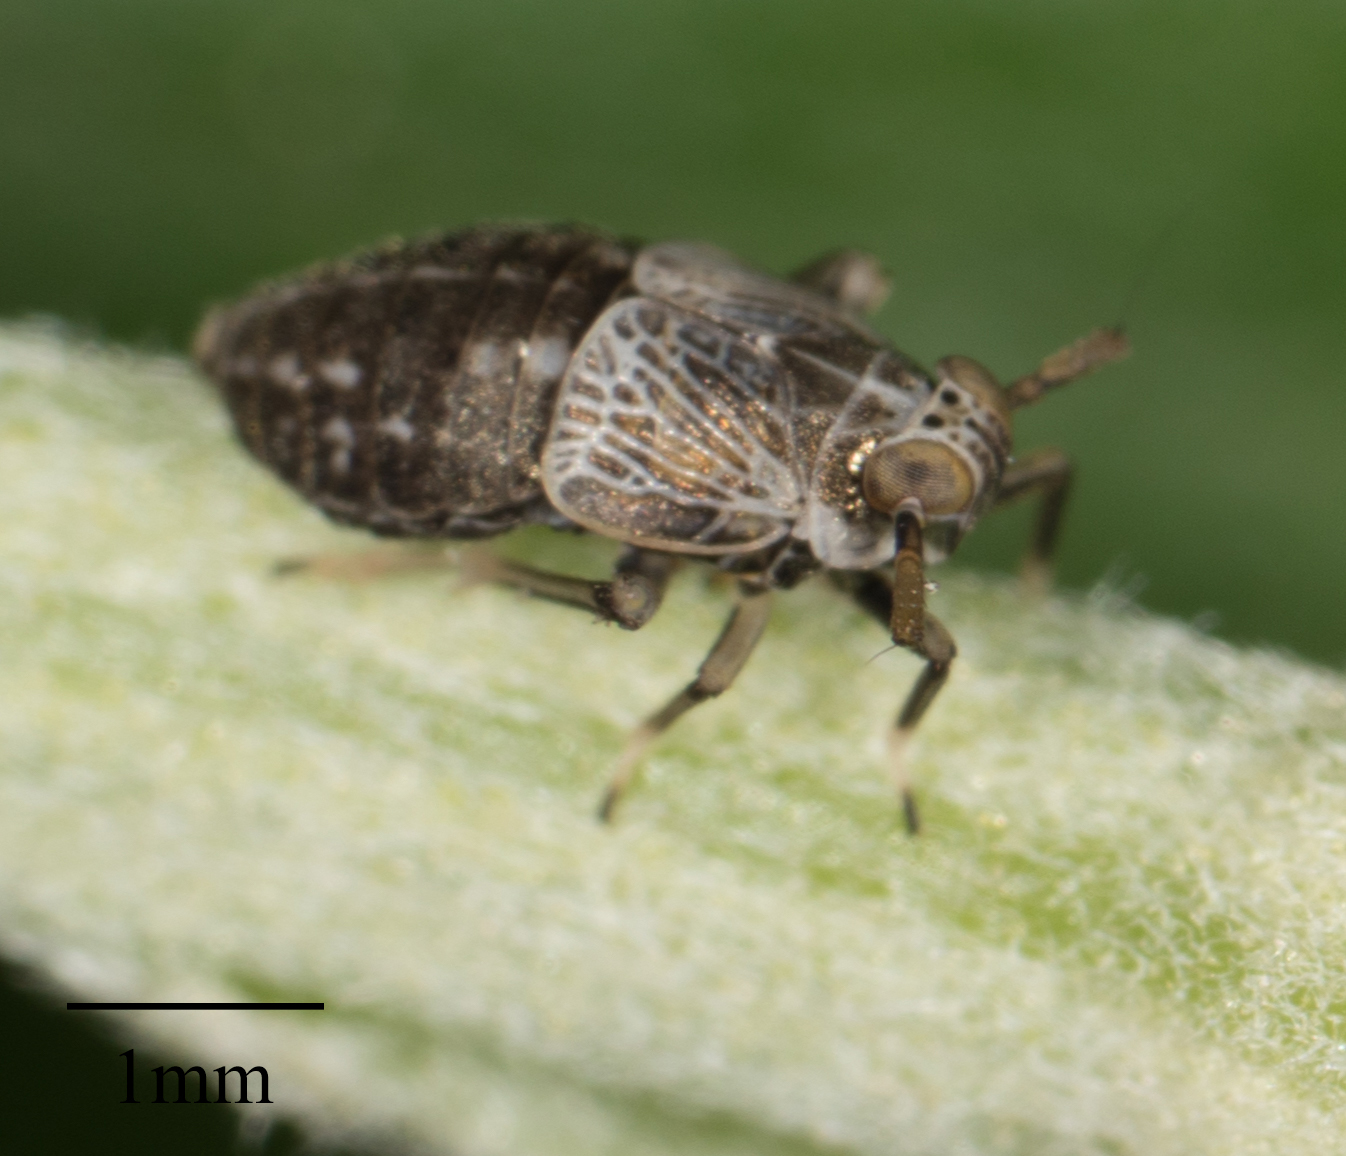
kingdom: Animalia
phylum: Arthropoda
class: Insecta
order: Hemiptera
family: Delphacidae
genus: Pissonotus
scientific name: Pissonotus frontalis
